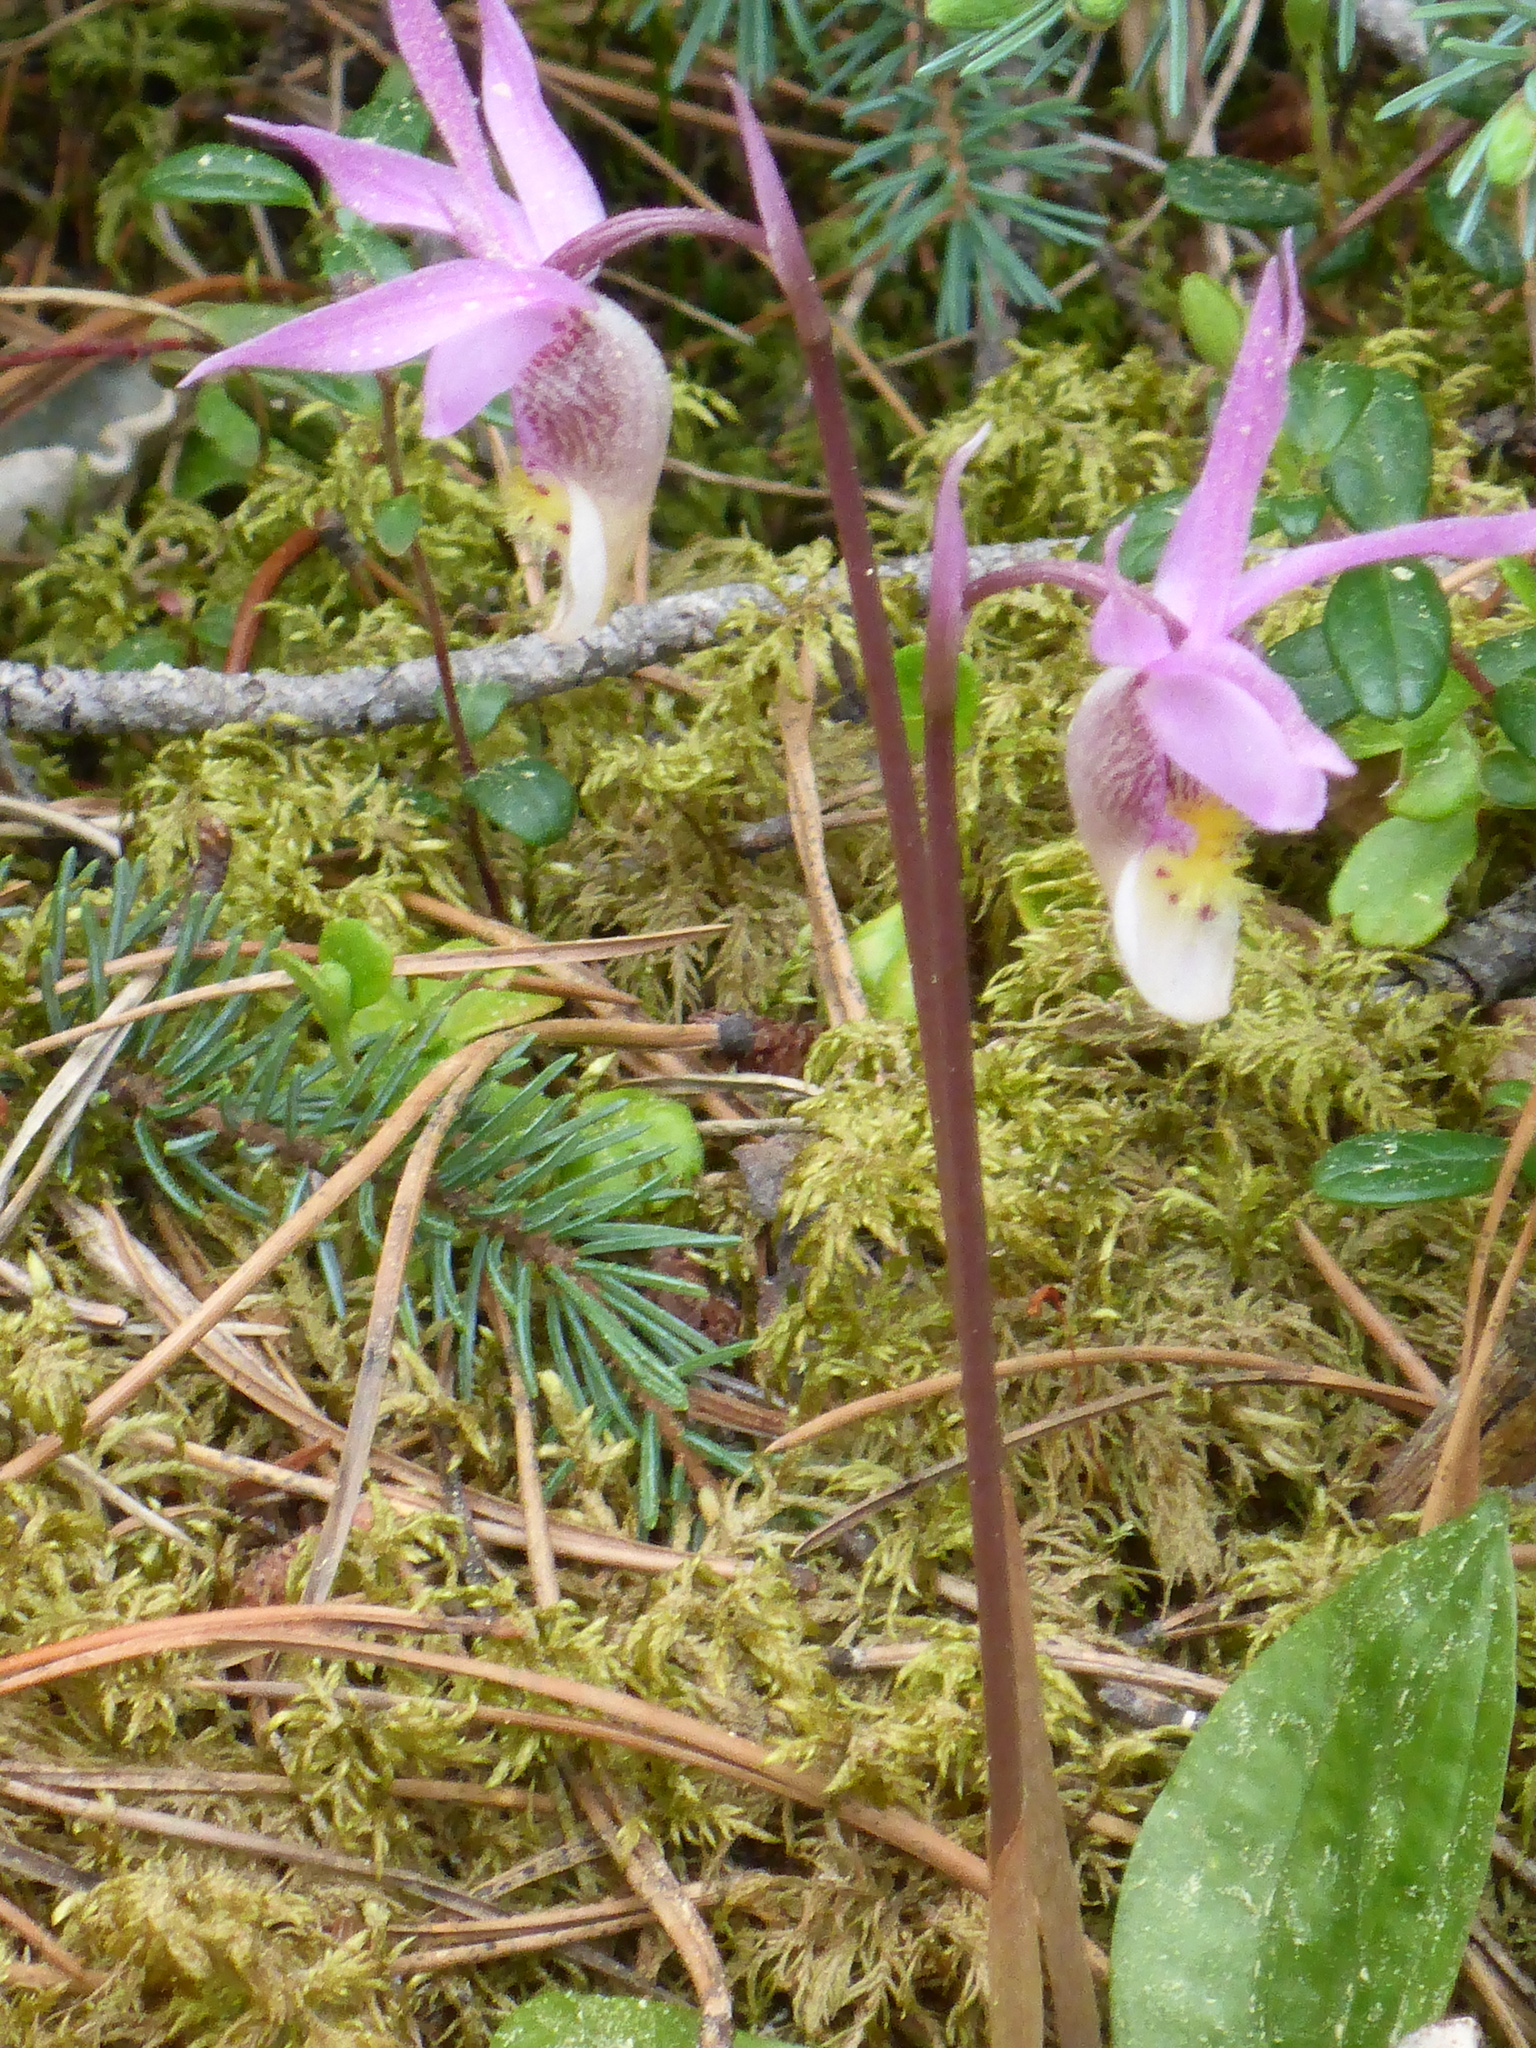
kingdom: Plantae
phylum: Tracheophyta
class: Liliopsida
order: Asparagales
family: Orchidaceae
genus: Calypso
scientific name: Calypso bulbosa
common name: Calypso
